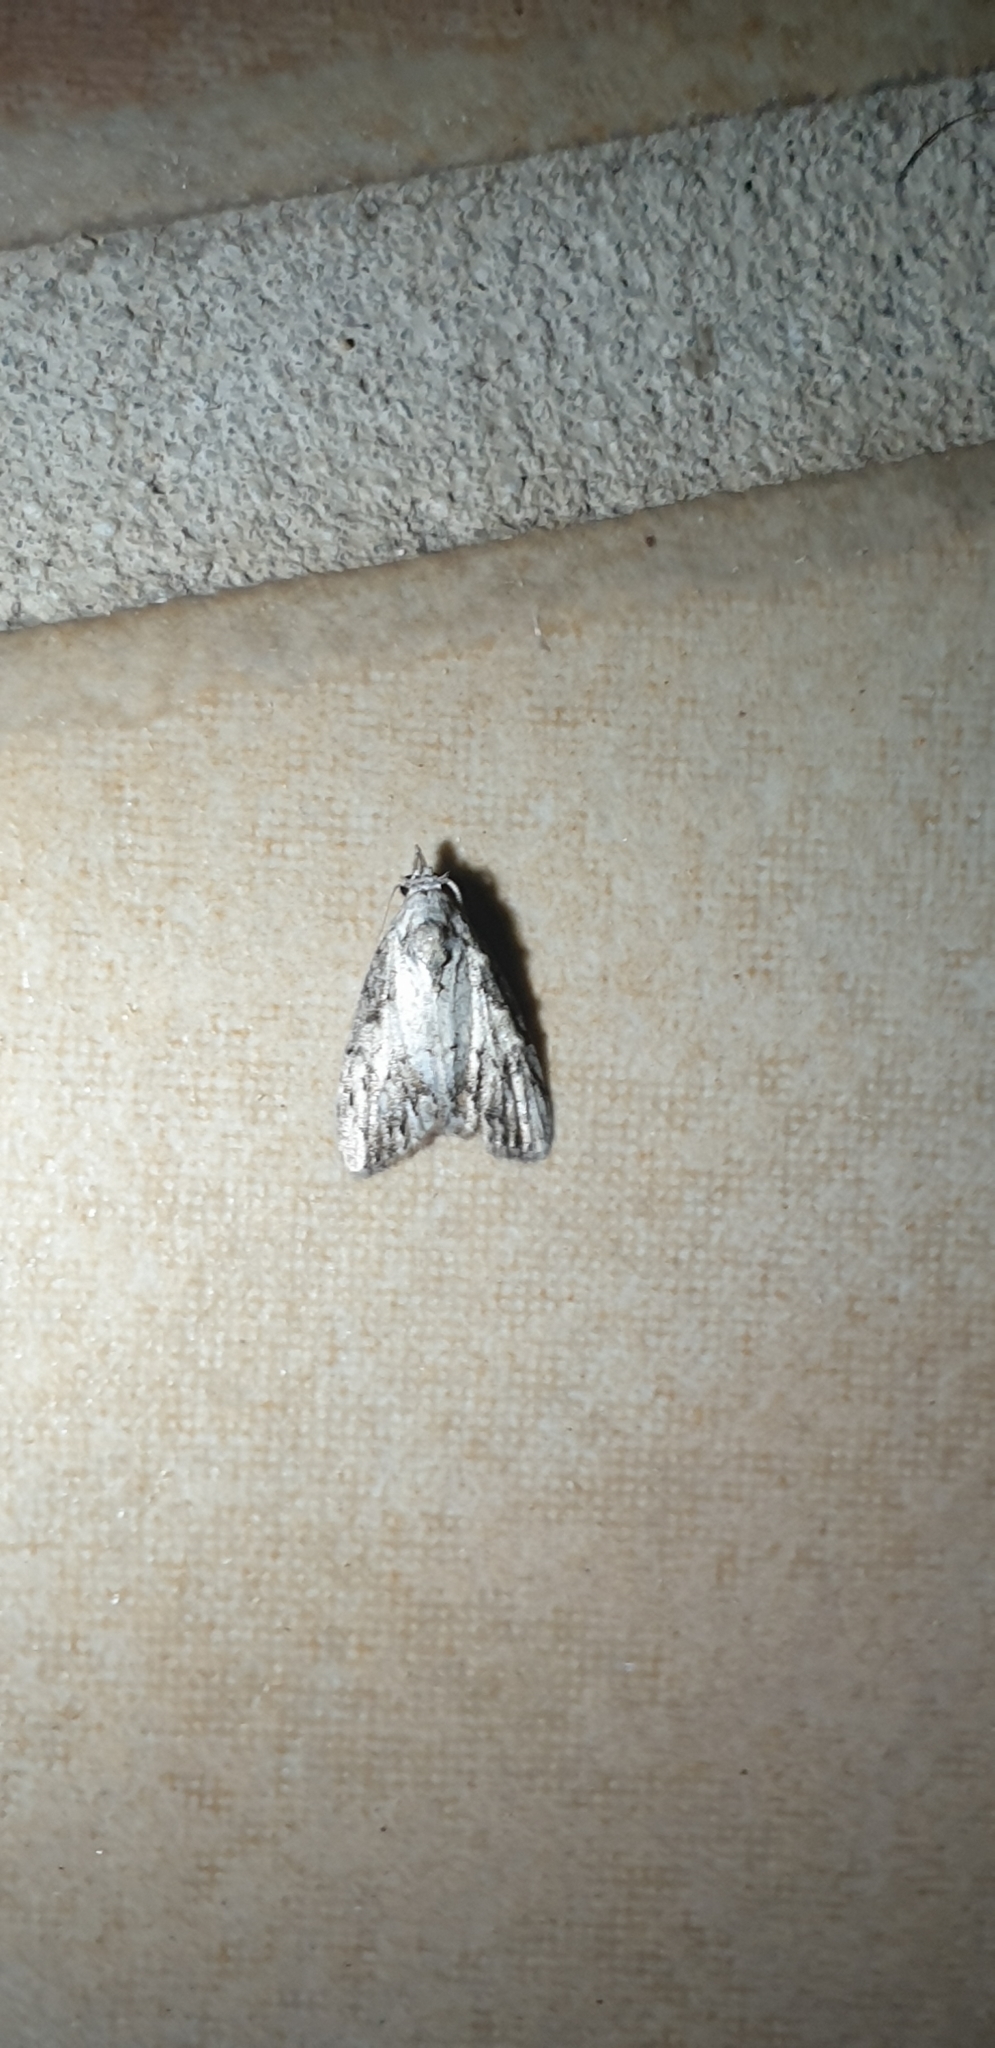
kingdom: Animalia
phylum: Arthropoda
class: Insecta
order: Lepidoptera
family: Nolidae
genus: Nola
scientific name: Nola pleurochorda
